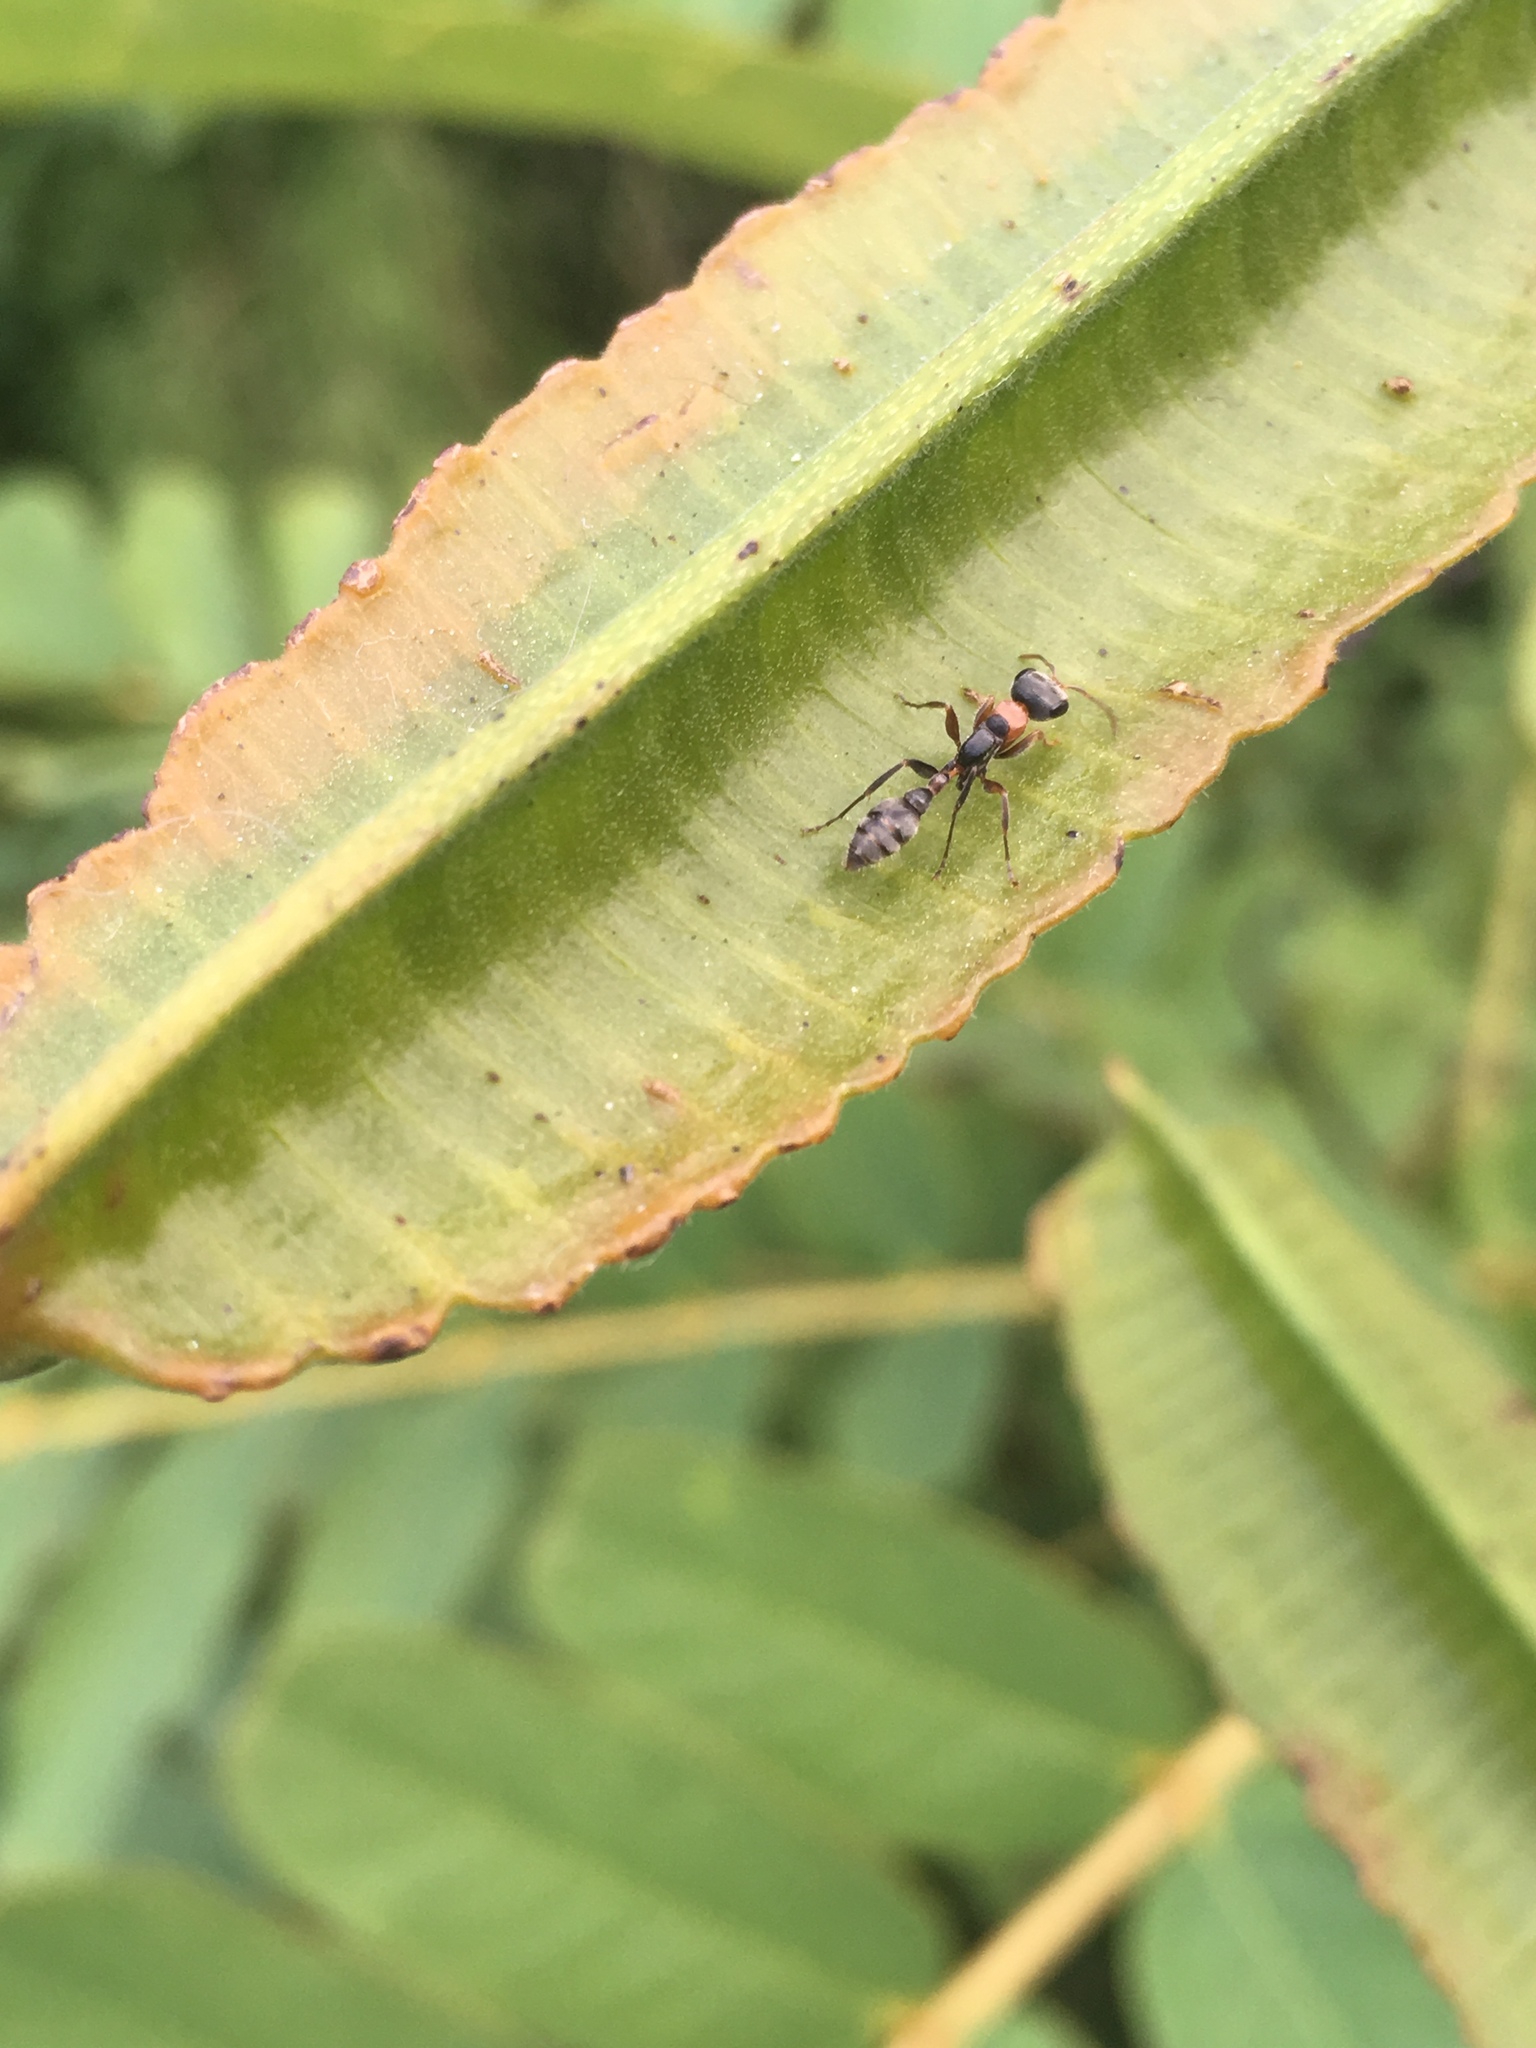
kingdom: Animalia
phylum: Arthropoda
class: Insecta
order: Hymenoptera
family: Formicidae
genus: Pseudomyrmex
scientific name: Pseudomyrmex gracilis
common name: Graceful twig ant
